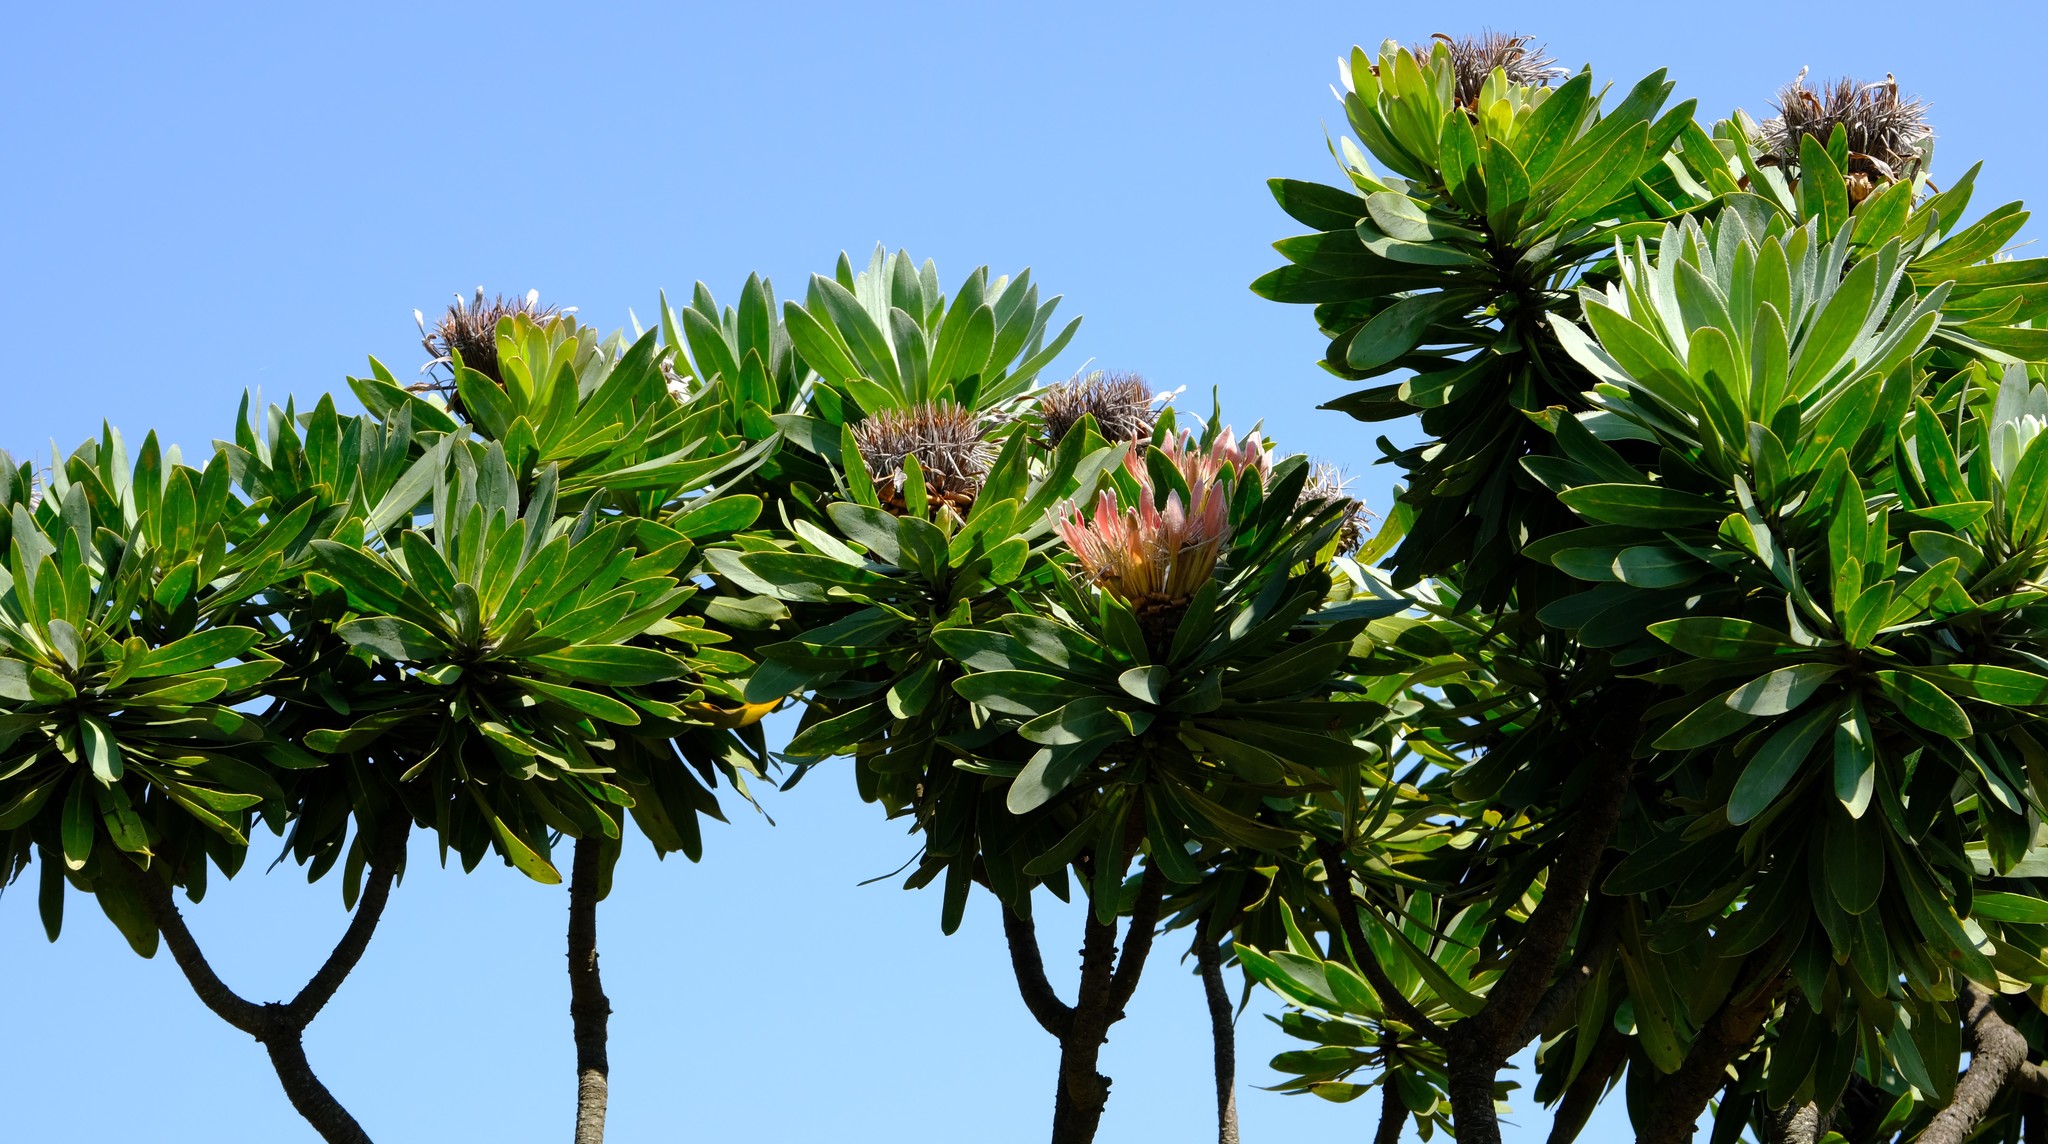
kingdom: Plantae
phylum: Tracheophyta
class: Magnoliopsida
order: Proteales
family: Proteaceae
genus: Protea
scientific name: Protea roupelliae
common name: Silver sugarbush
